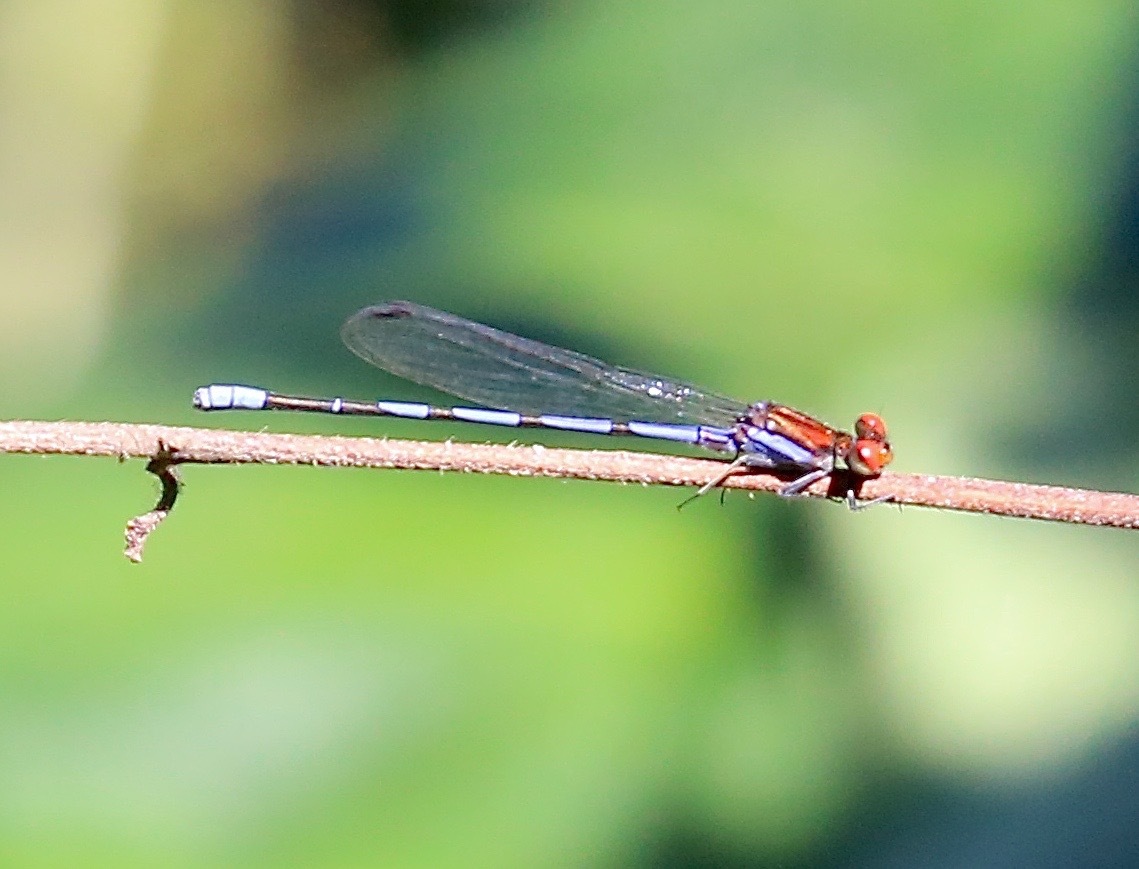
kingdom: Animalia
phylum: Arthropoda
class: Insecta
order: Odonata
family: Coenagrionidae
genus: Argia
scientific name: Argia oenea
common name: Fiery-eyed dancer
